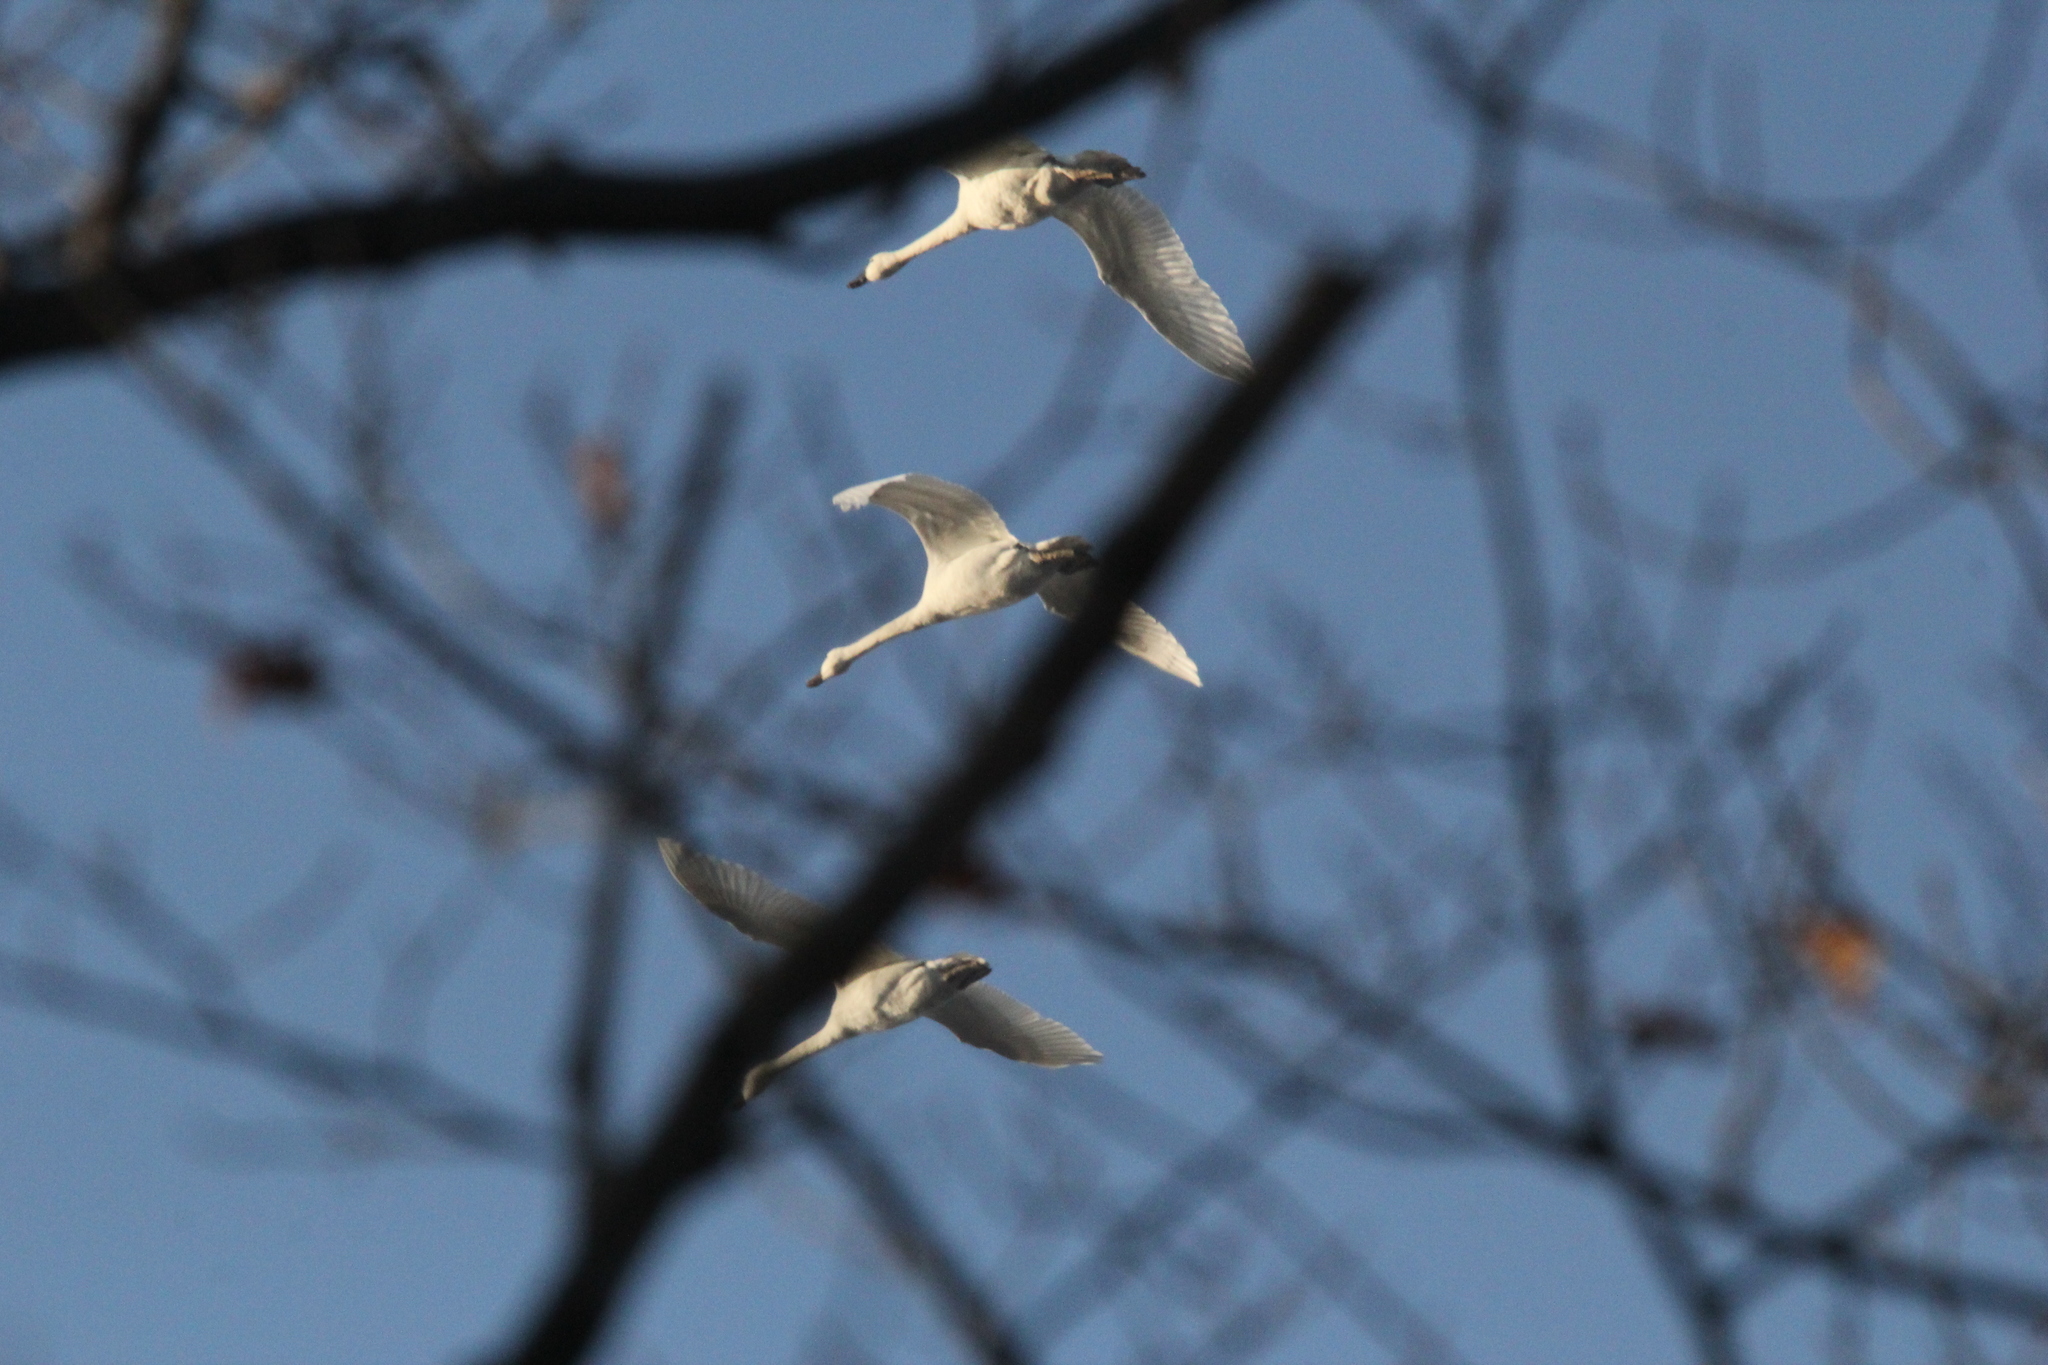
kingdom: Animalia
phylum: Chordata
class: Aves
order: Anseriformes
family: Anatidae
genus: Cygnus
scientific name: Cygnus columbianus
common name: Tundra swan
